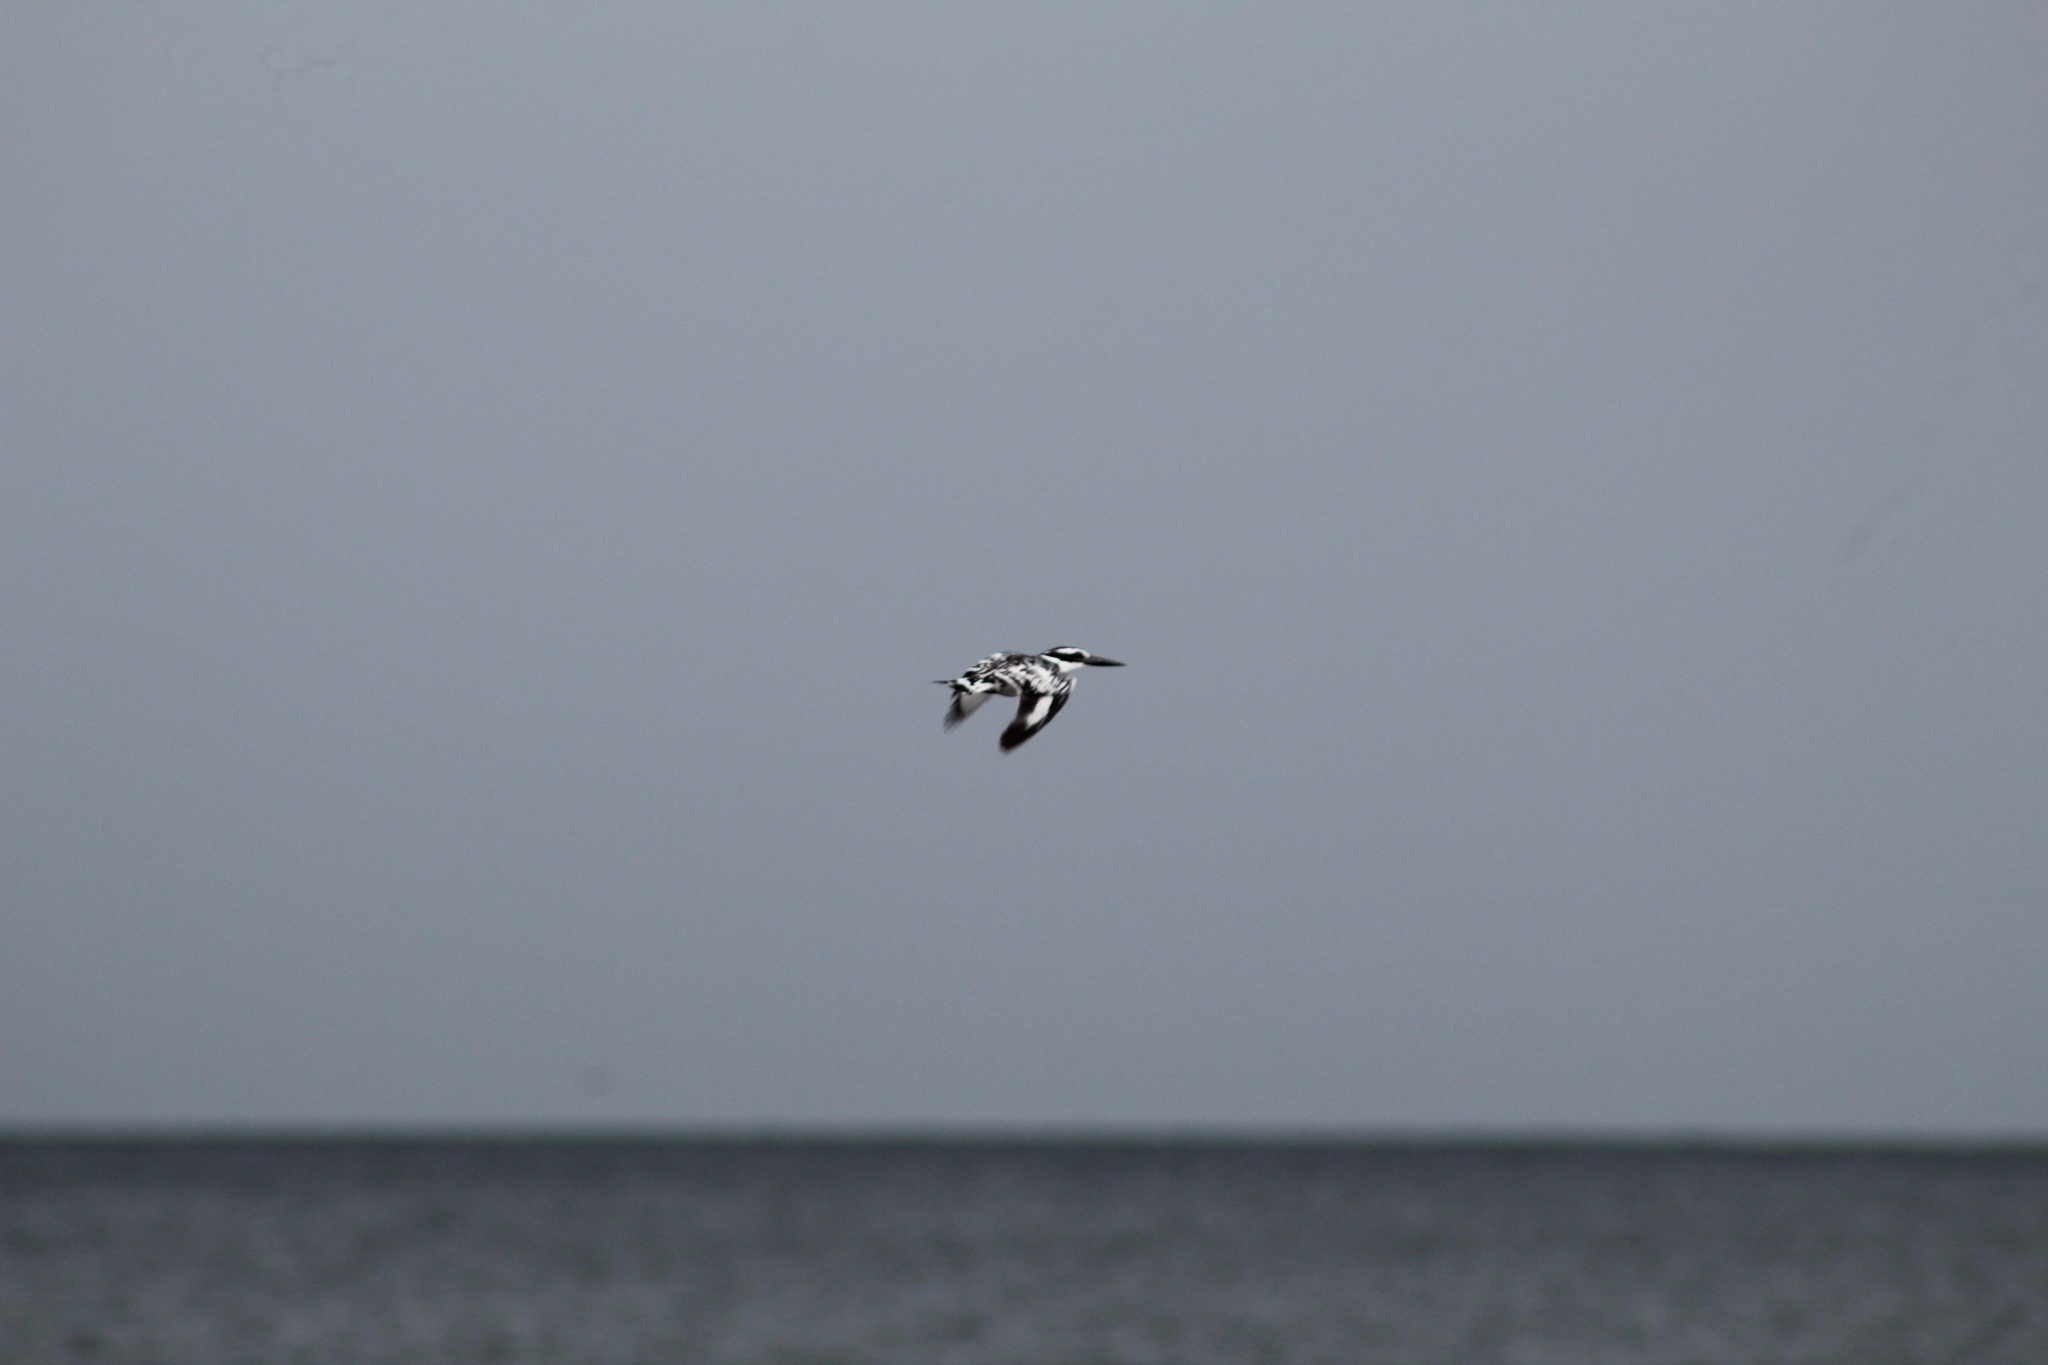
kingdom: Animalia
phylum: Chordata
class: Aves
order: Coraciiformes
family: Alcedinidae
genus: Ceryle
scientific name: Ceryle rudis
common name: Pied kingfisher
